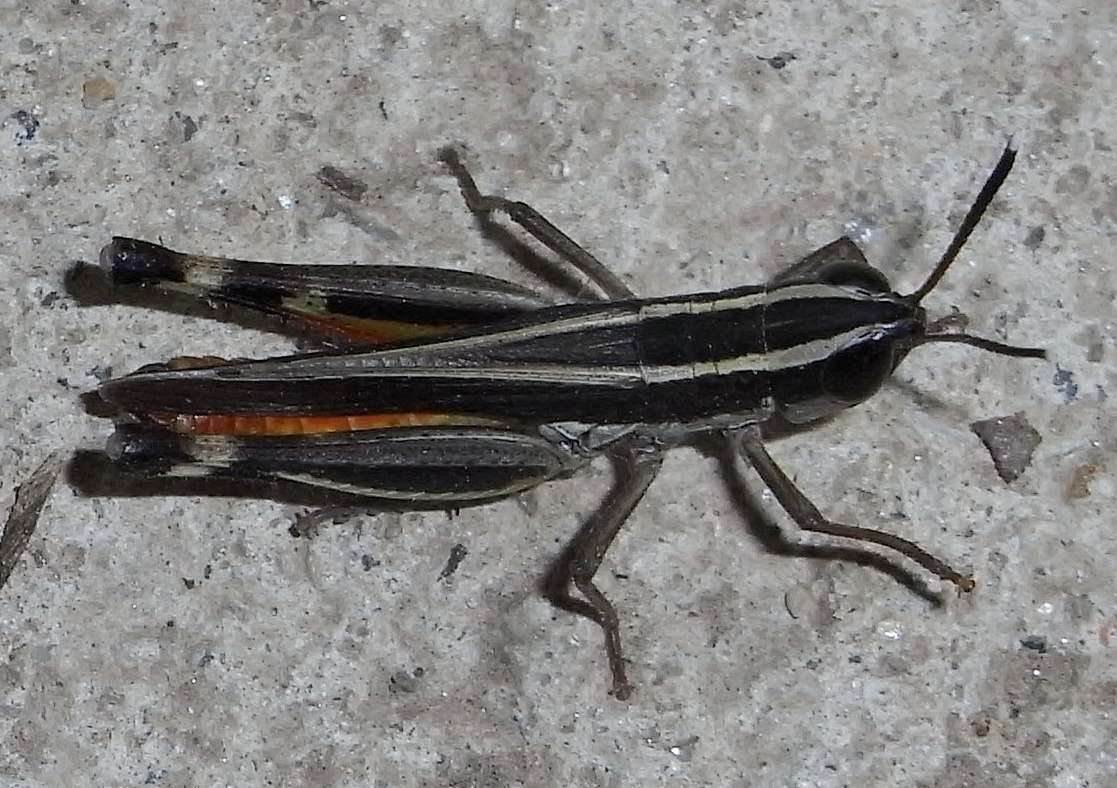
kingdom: Animalia
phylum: Arthropoda
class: Insecta
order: Orthoptera
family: Acrididae
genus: Macrotona
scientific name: Macrotona australis
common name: Common macrotona
